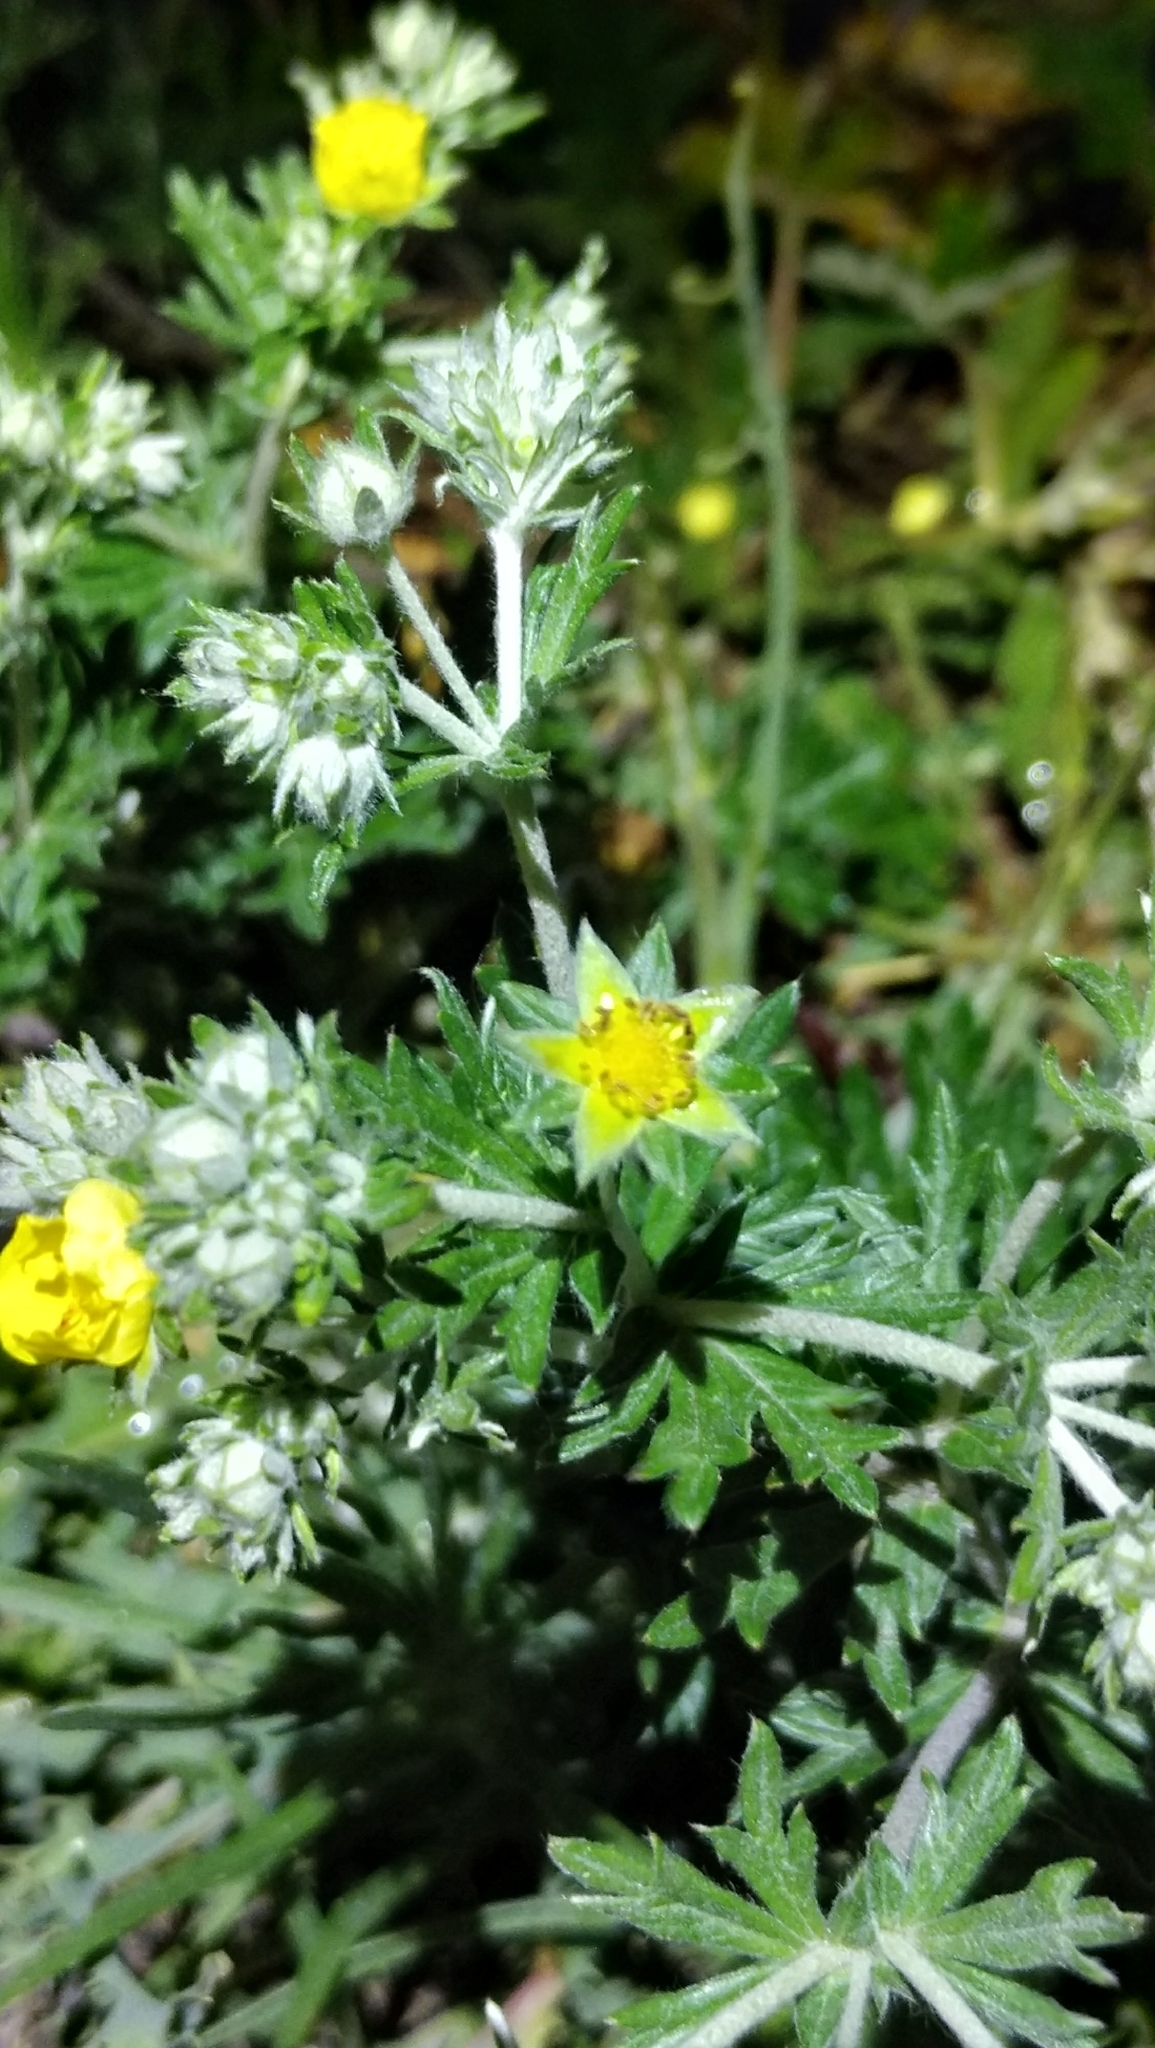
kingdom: Plantae
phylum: Tracheophyta
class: Magnoliopsida
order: Rosales
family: Rosaceae
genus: Potentilla
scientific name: Potentilla argentea
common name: Hoary cinquefoil
